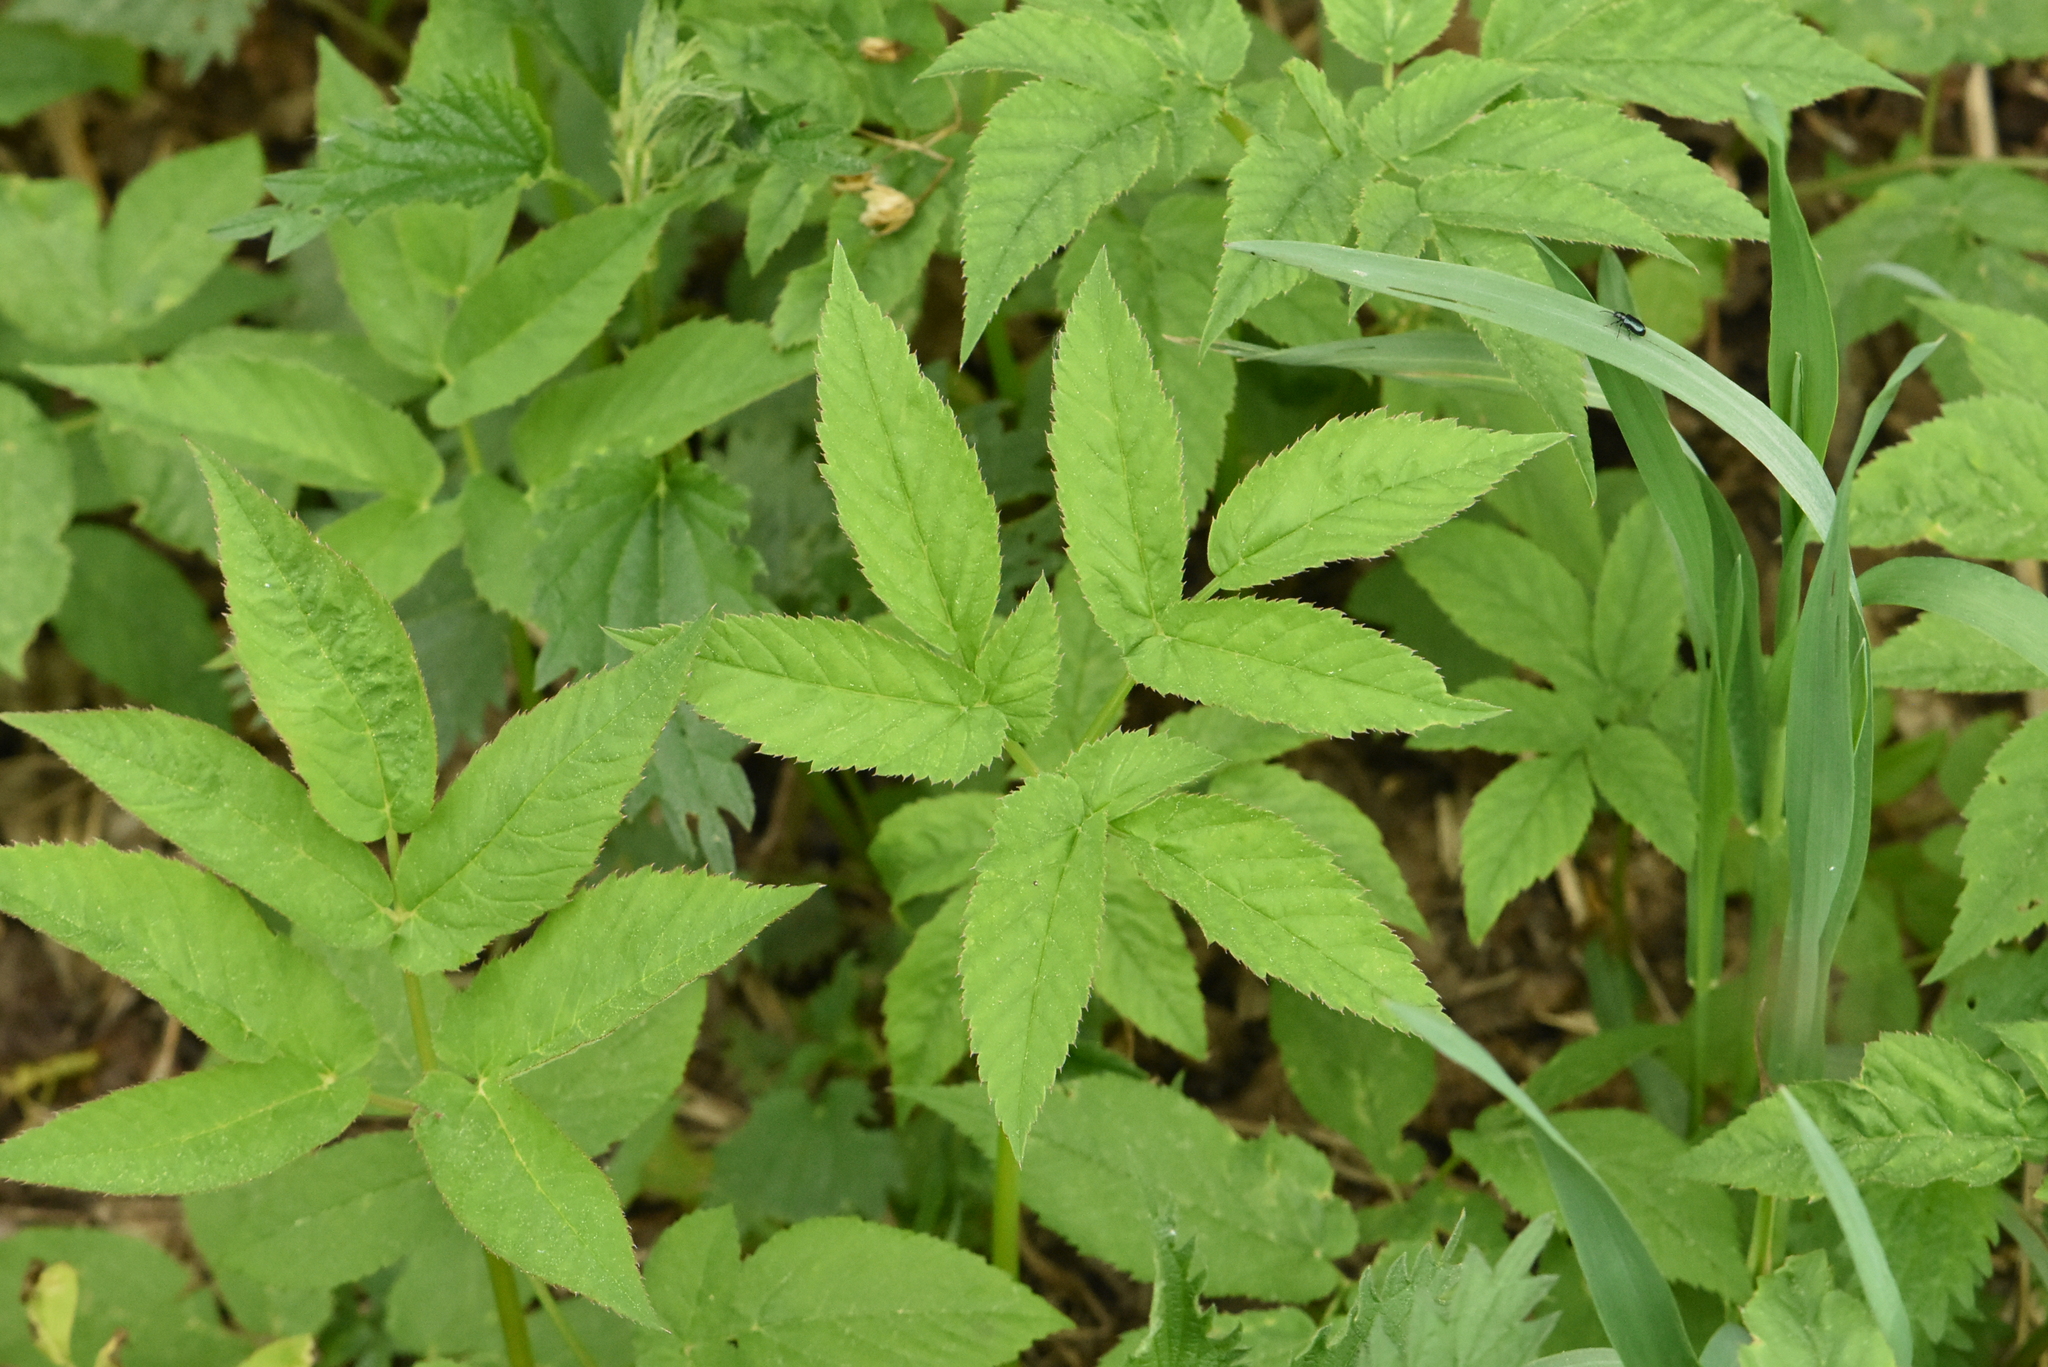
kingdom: Plantae
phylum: Tracheophyta
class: Magnoliopsida
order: Apiales
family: Apiaceae
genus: Aegopodium
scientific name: Aegopodium podagraria
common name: Ground-elder
